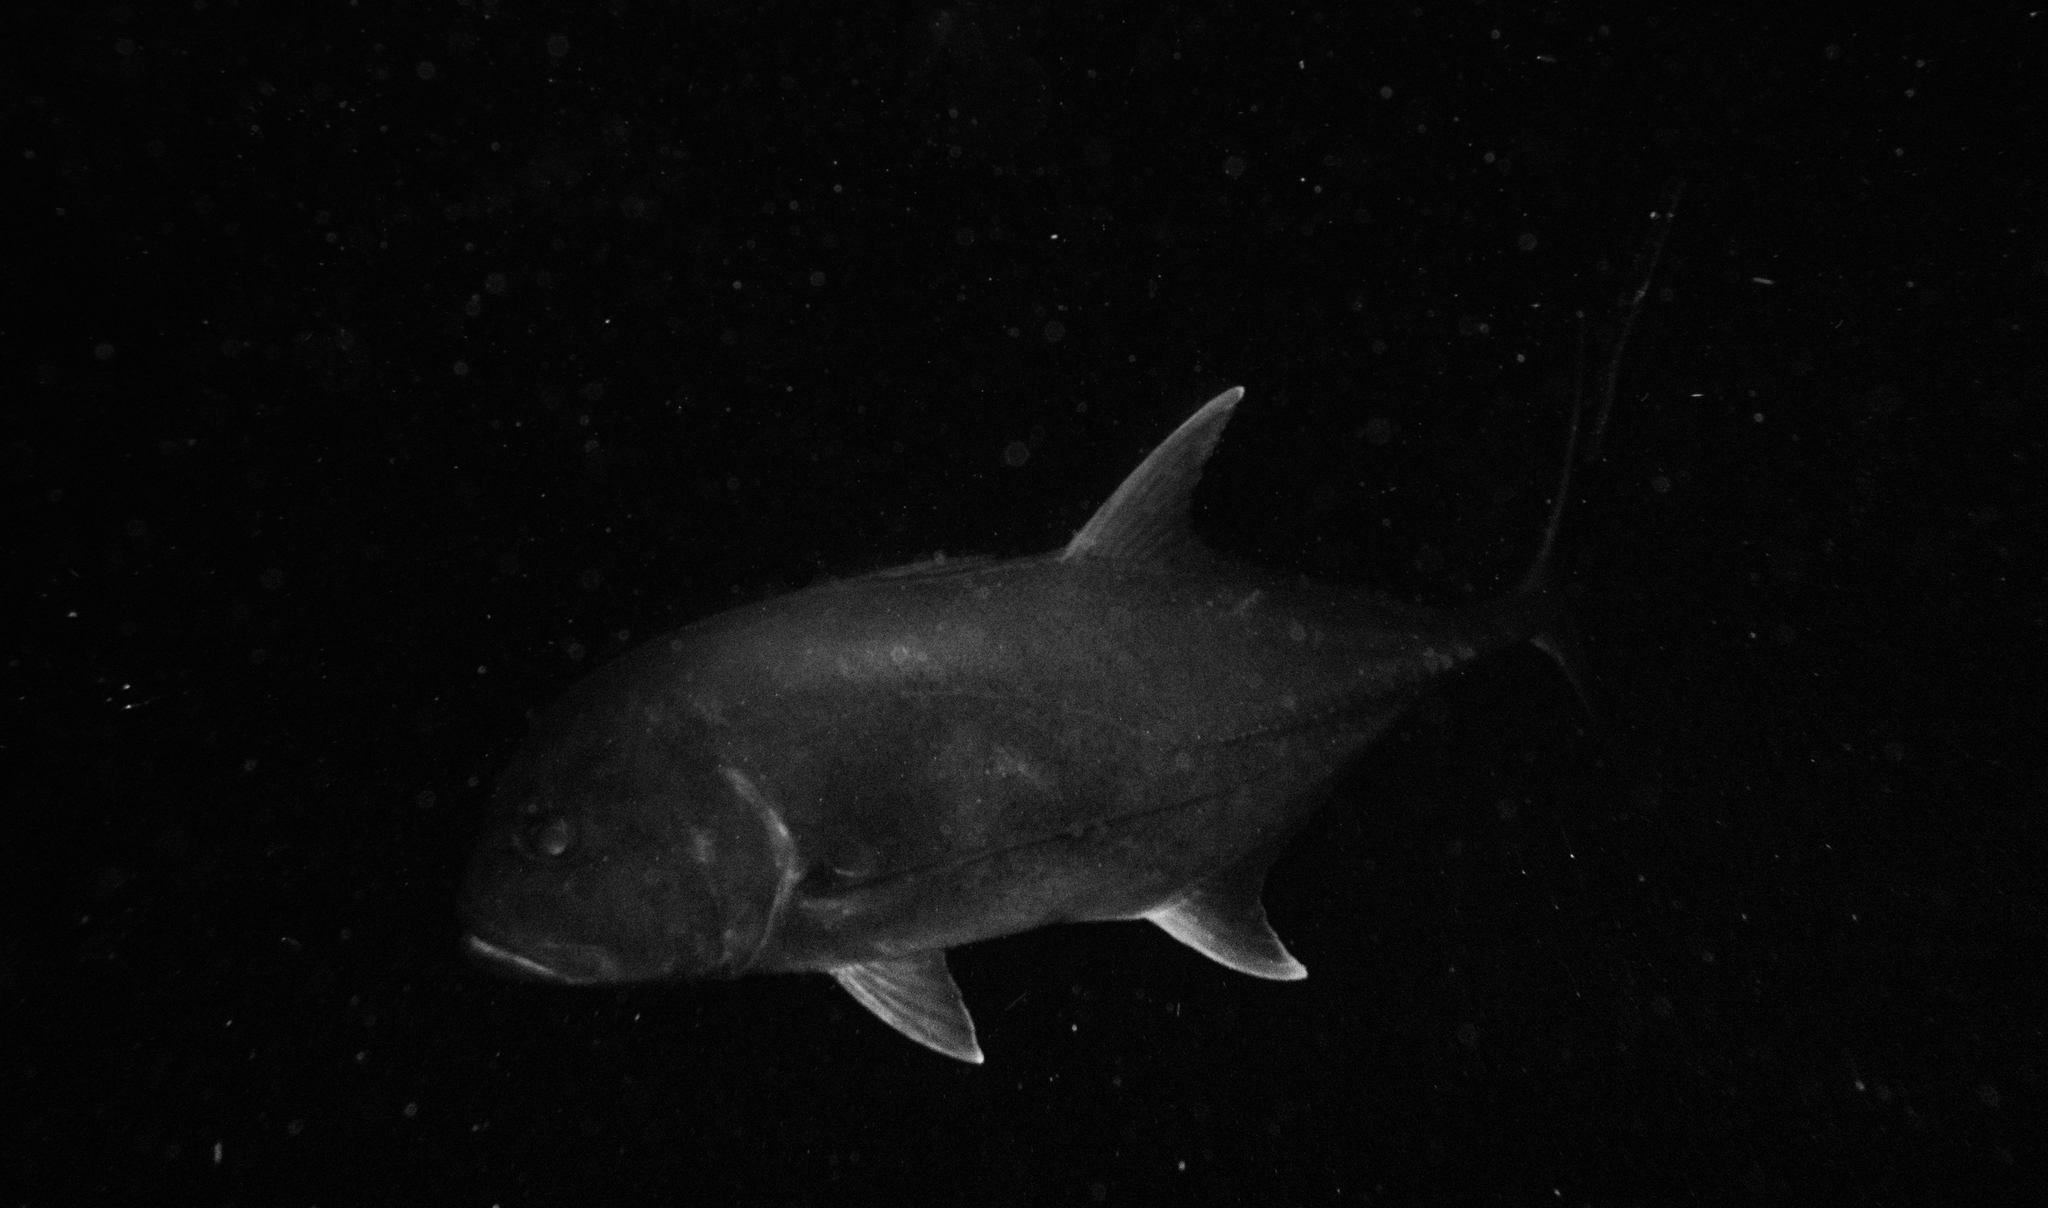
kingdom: Animalia
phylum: Chordata
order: Perciformes
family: Carangidae
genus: Caranx
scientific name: Caranx ignobilis
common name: Giant trevally
